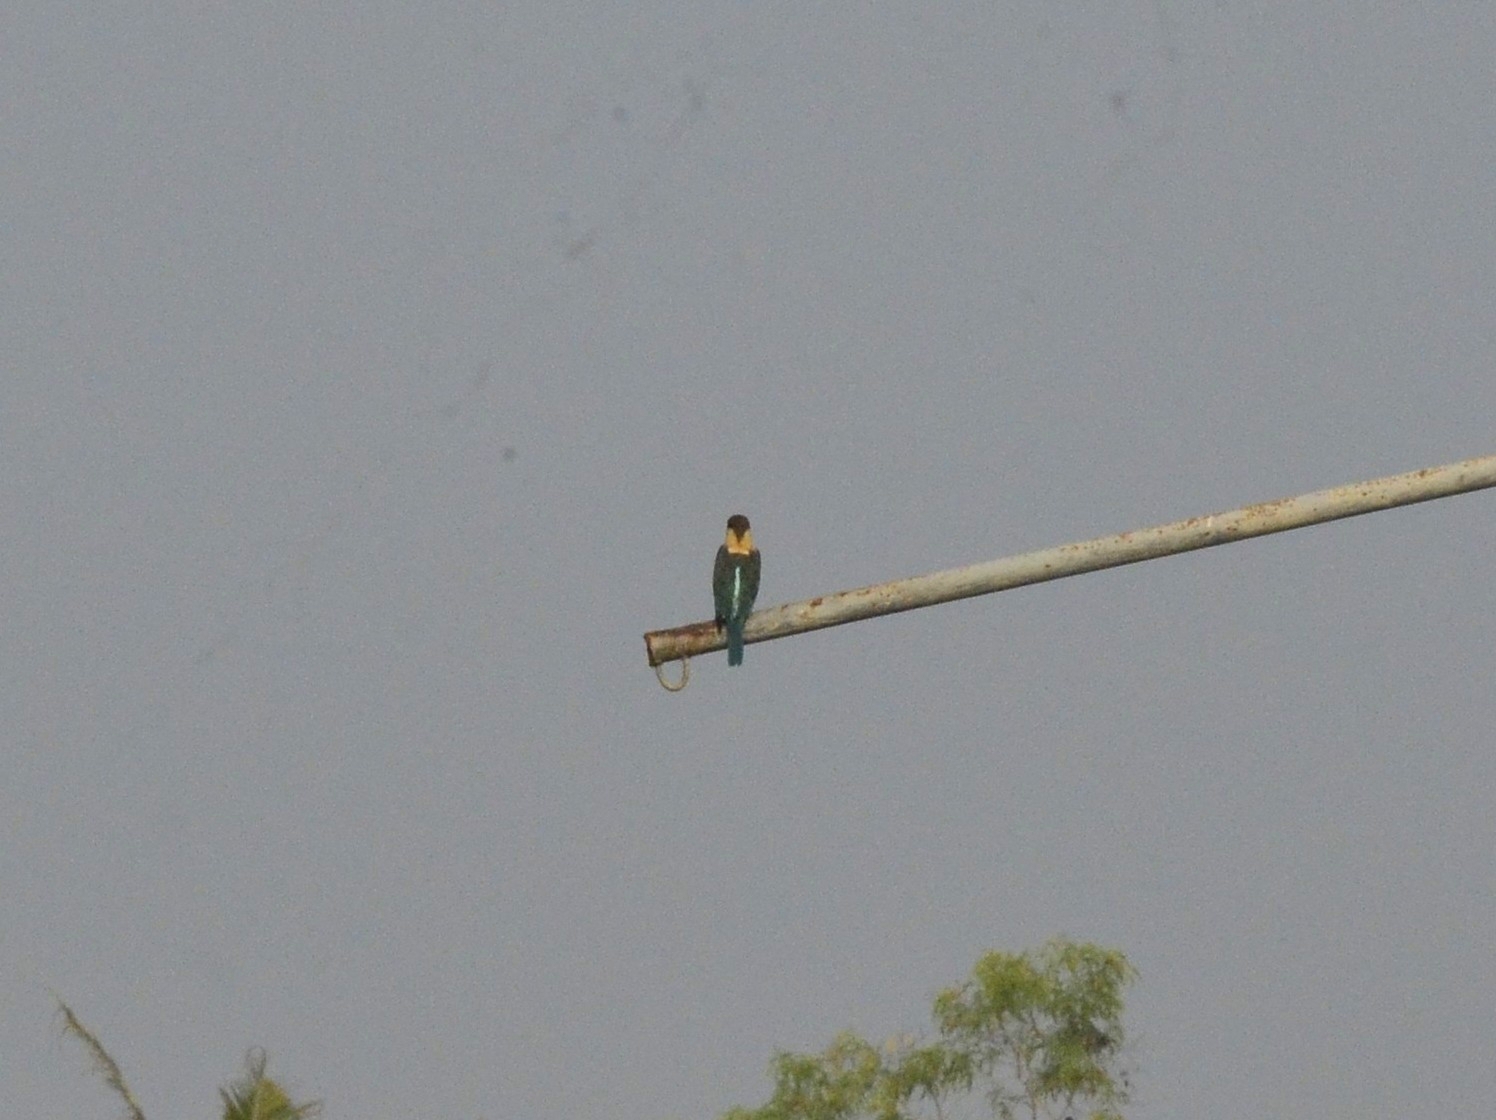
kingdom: Animalia
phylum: Chordata
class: Aves
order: Coraciiformes
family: Alcedinidae
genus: Pelargopsis
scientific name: Pelargopsis capensis
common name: Stork-billed kingfisher
